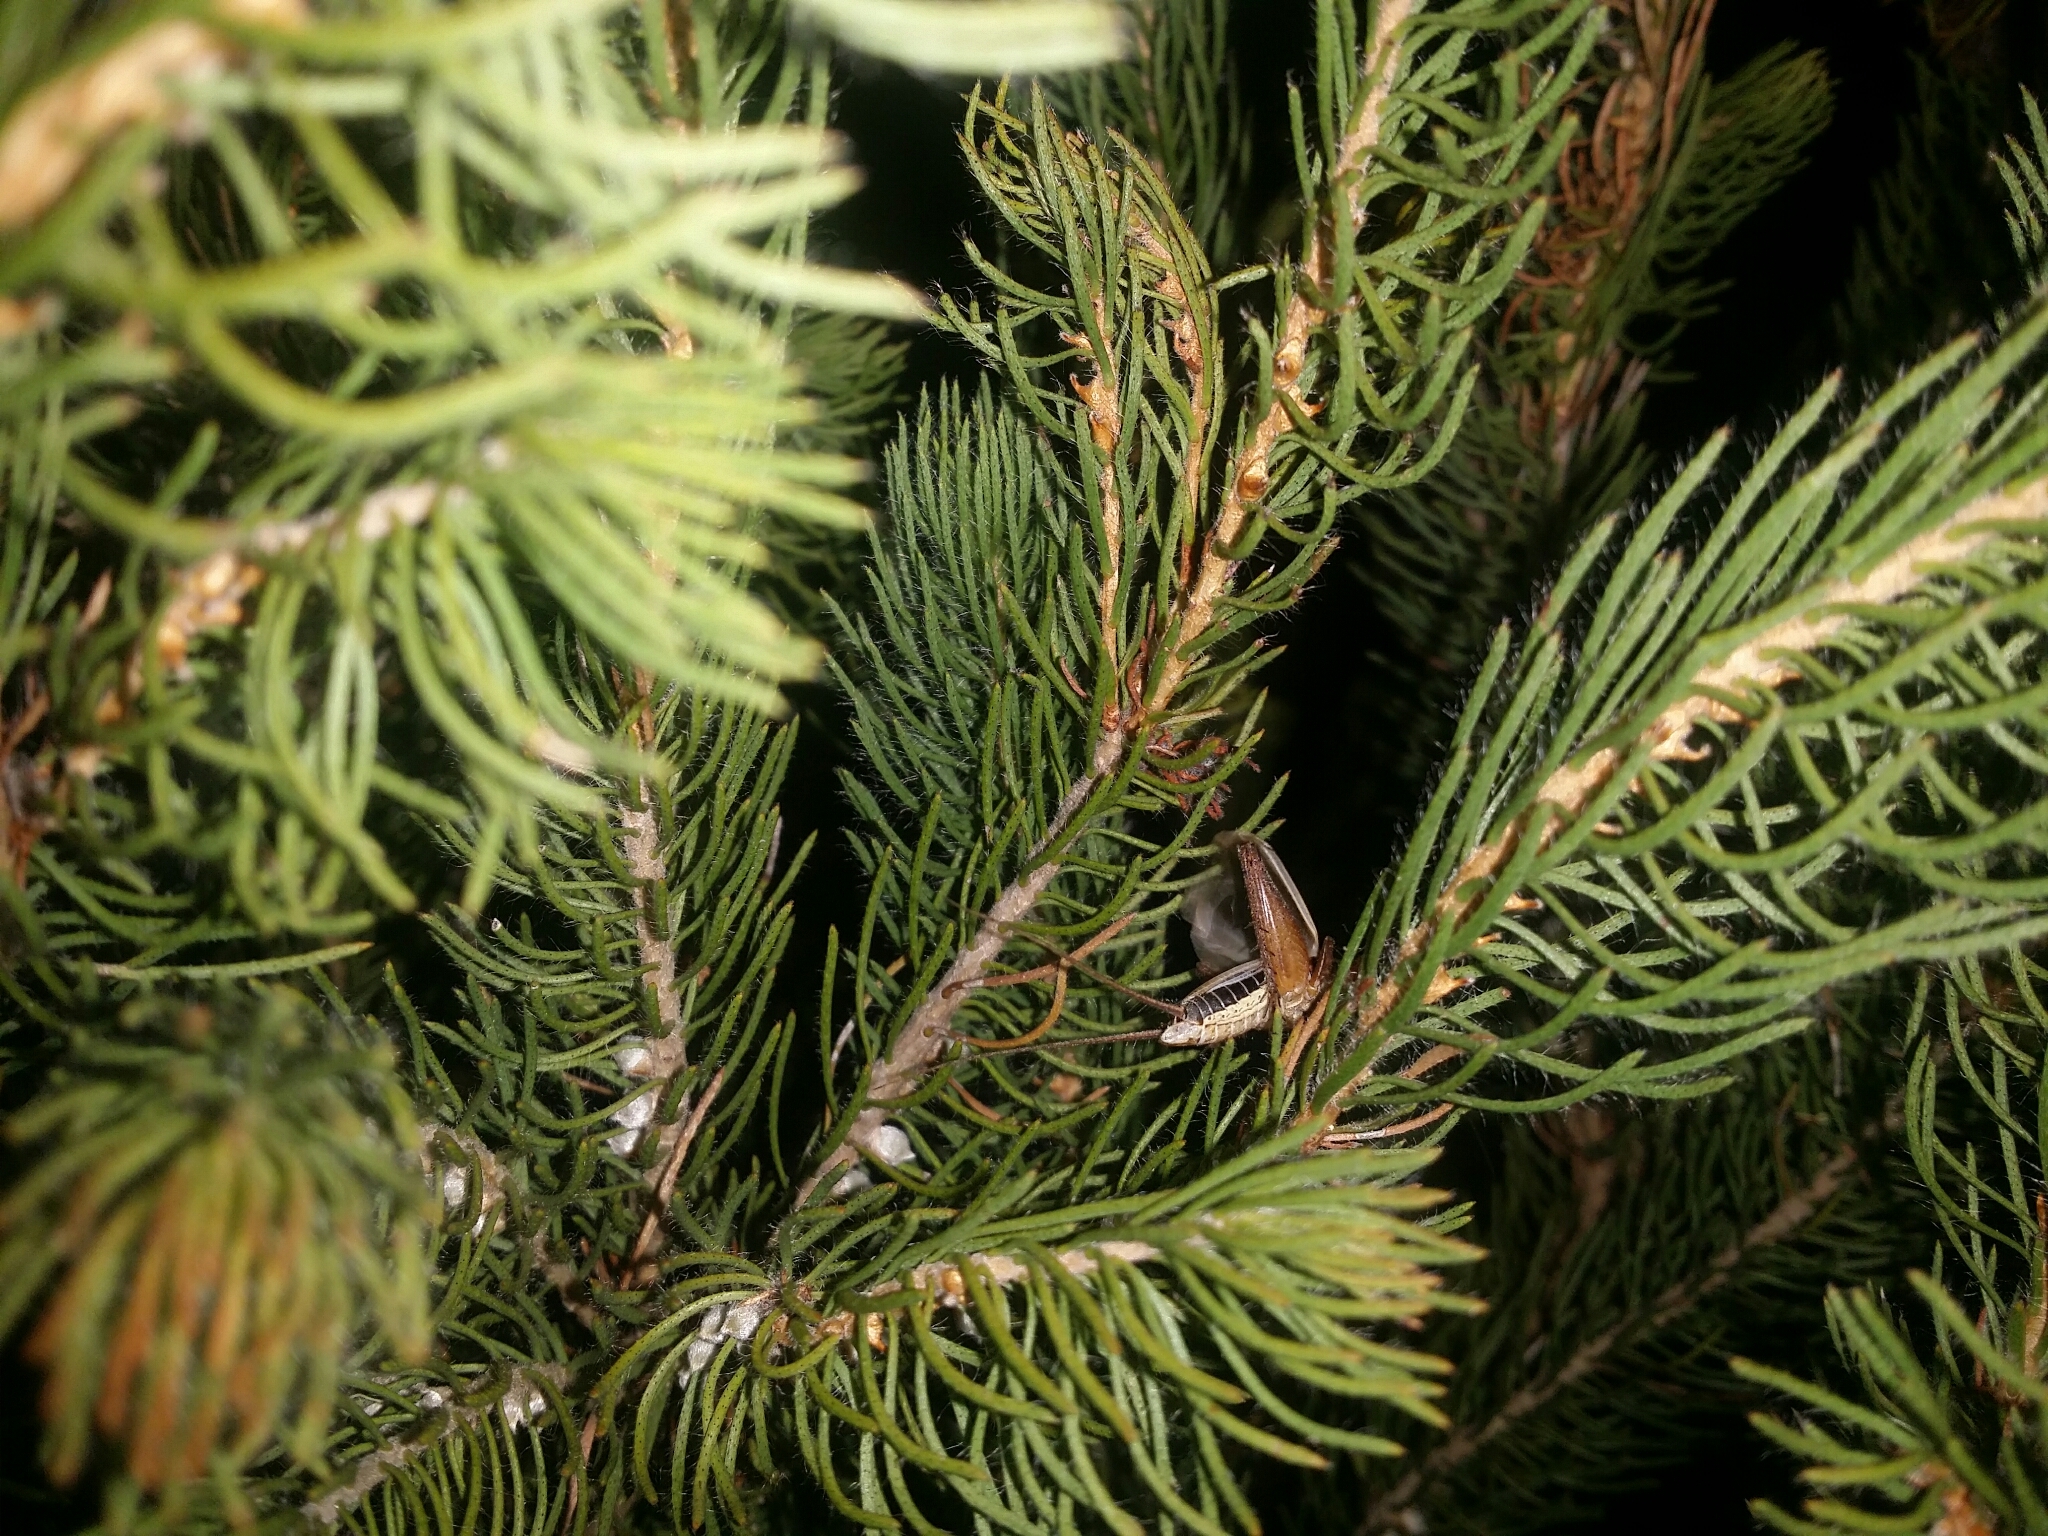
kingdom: Animalia
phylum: Arthropoda
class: Insecta
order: Orthoptera
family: Gryllidae
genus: Eurepa
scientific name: Eurepa marginipennis
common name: Southern longtail
